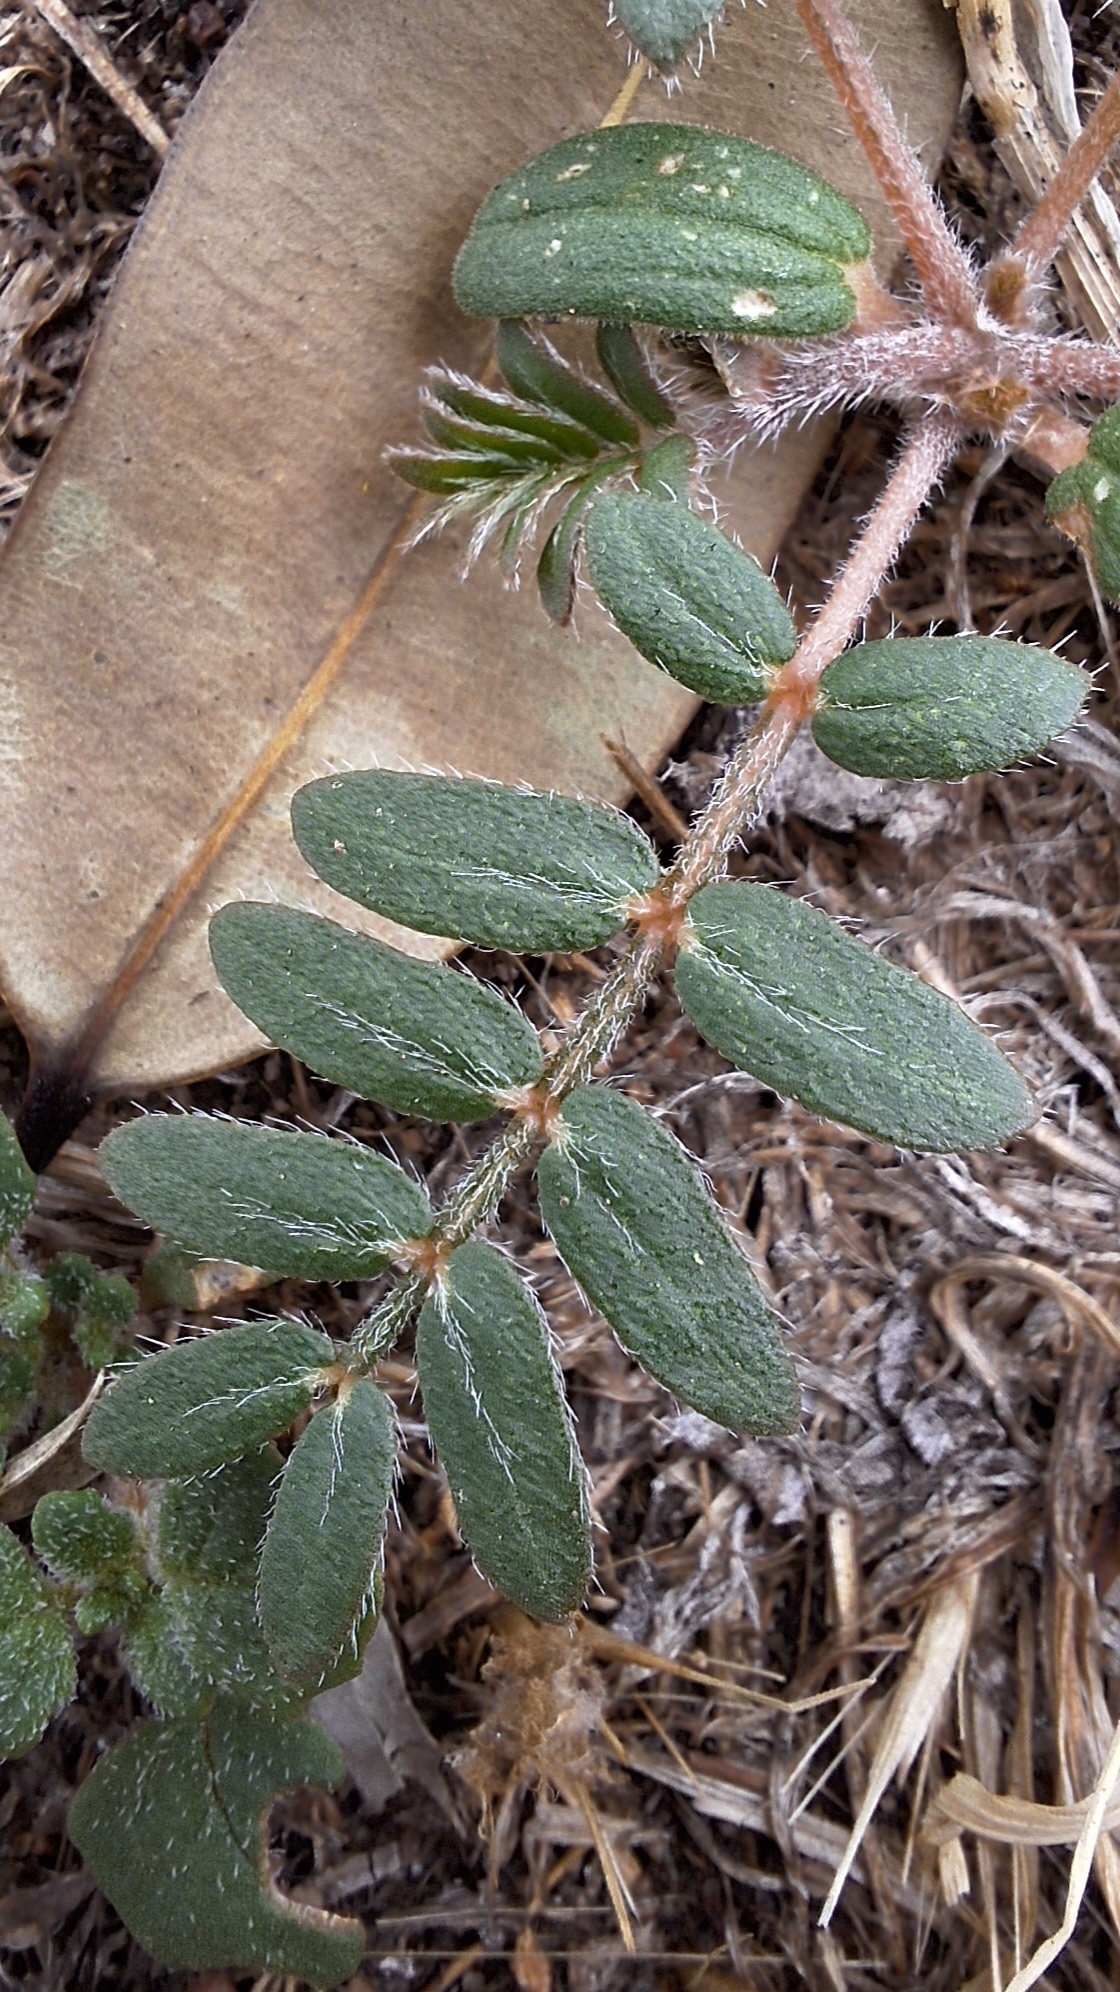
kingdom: Plantae
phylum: Tracheophyta
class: Magnoliopsida
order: Zygophyllales
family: Zygophyllaceae
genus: Tribulus
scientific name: Tribulus terrestris
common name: Puncturevine
